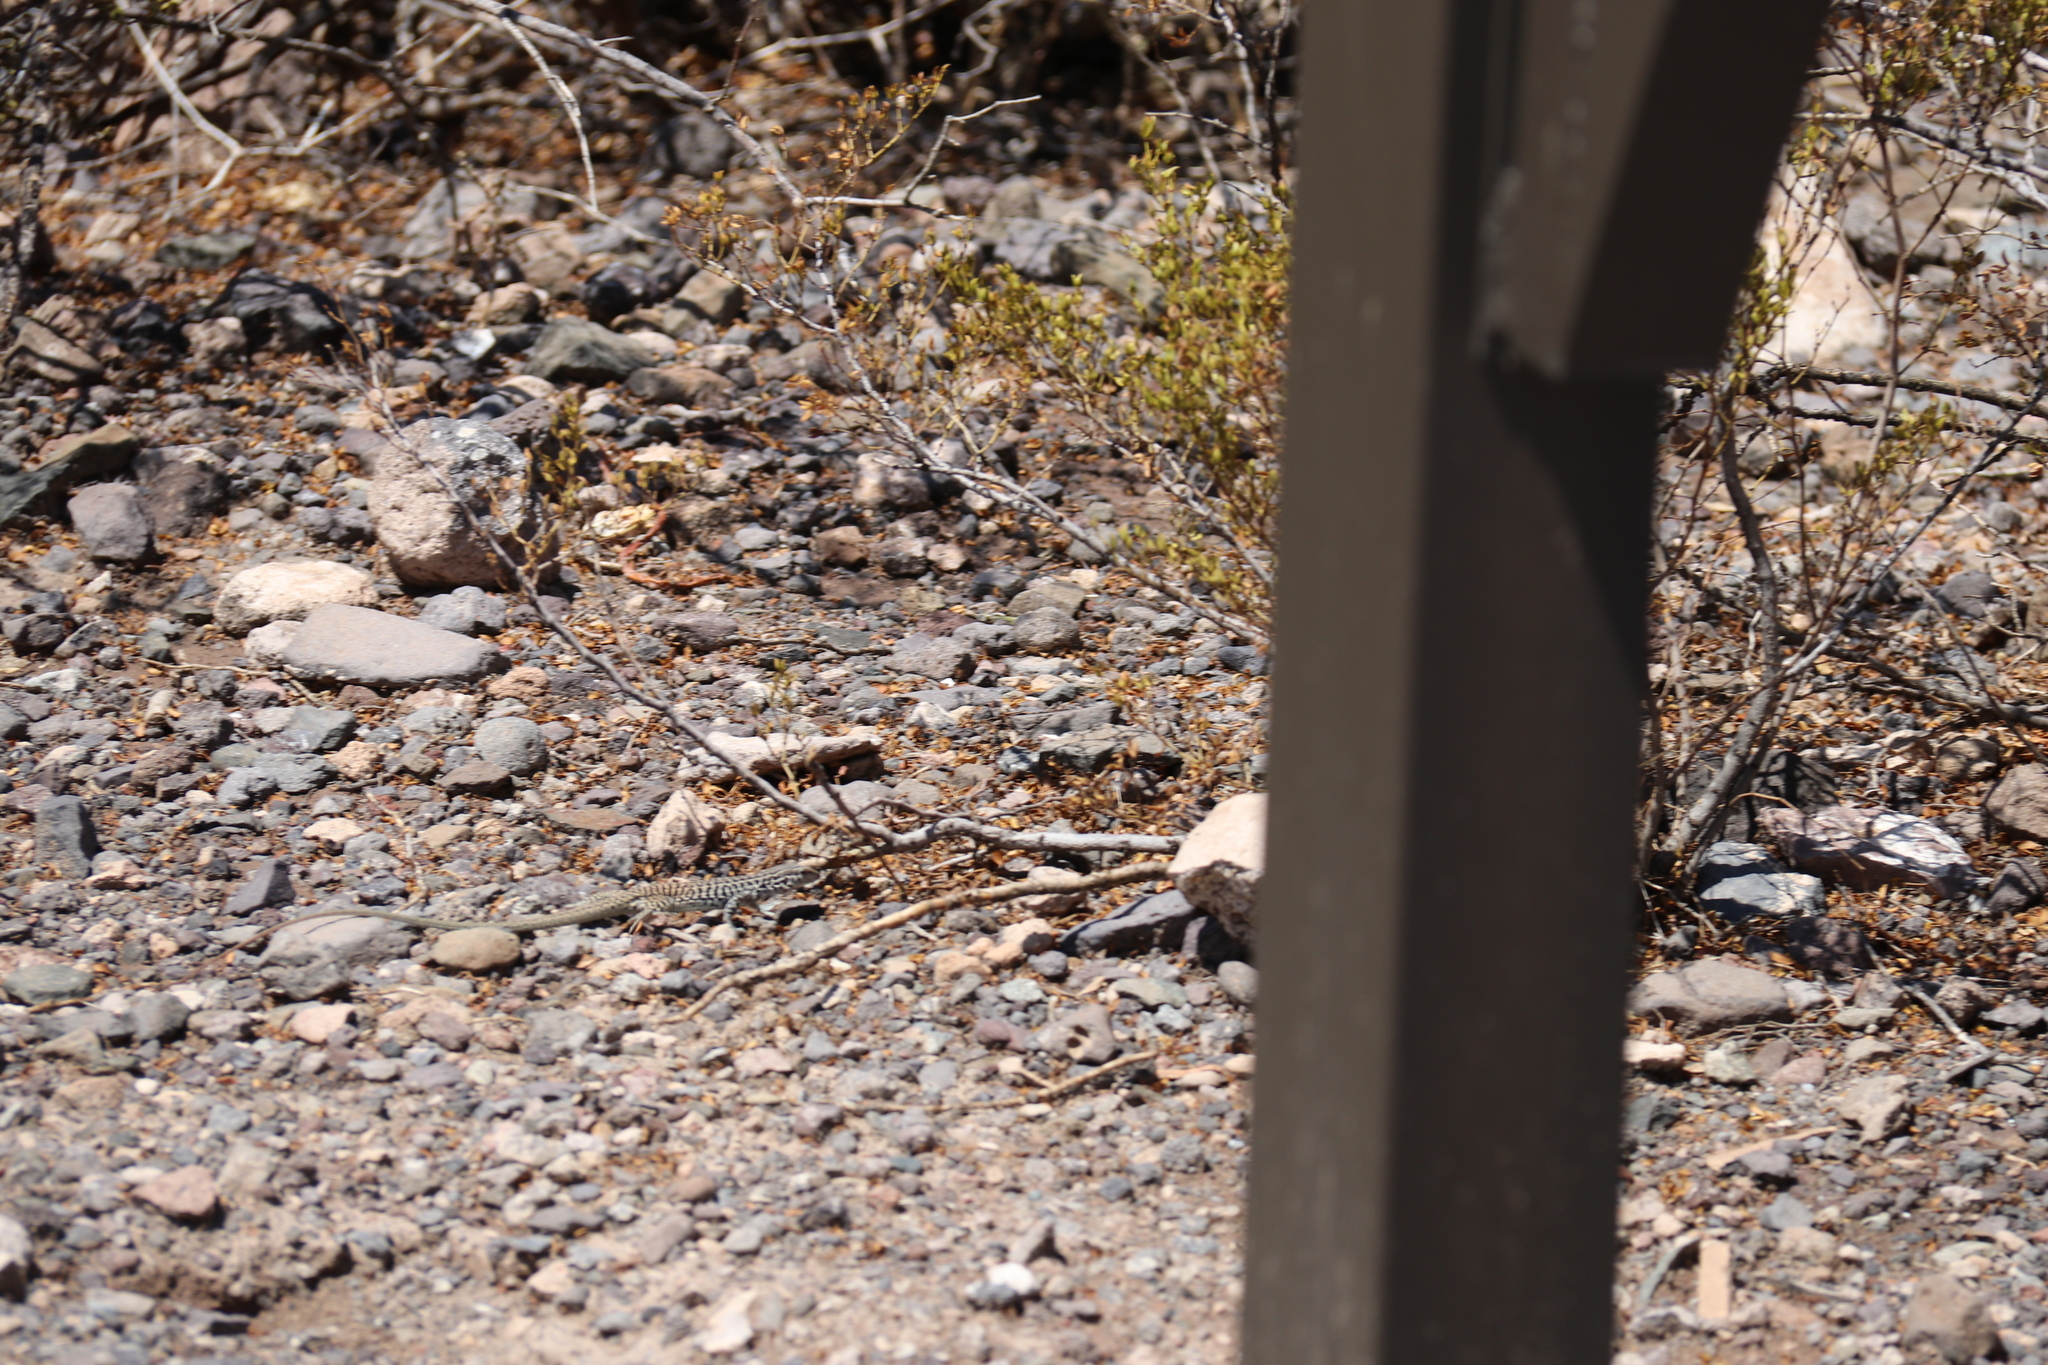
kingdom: Animalia
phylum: Chordata
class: Squamata
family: Teiidae
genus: Aspidoscelis
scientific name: Aspidoscelis tesselatus
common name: Common checkered whiptail [tesselata]
